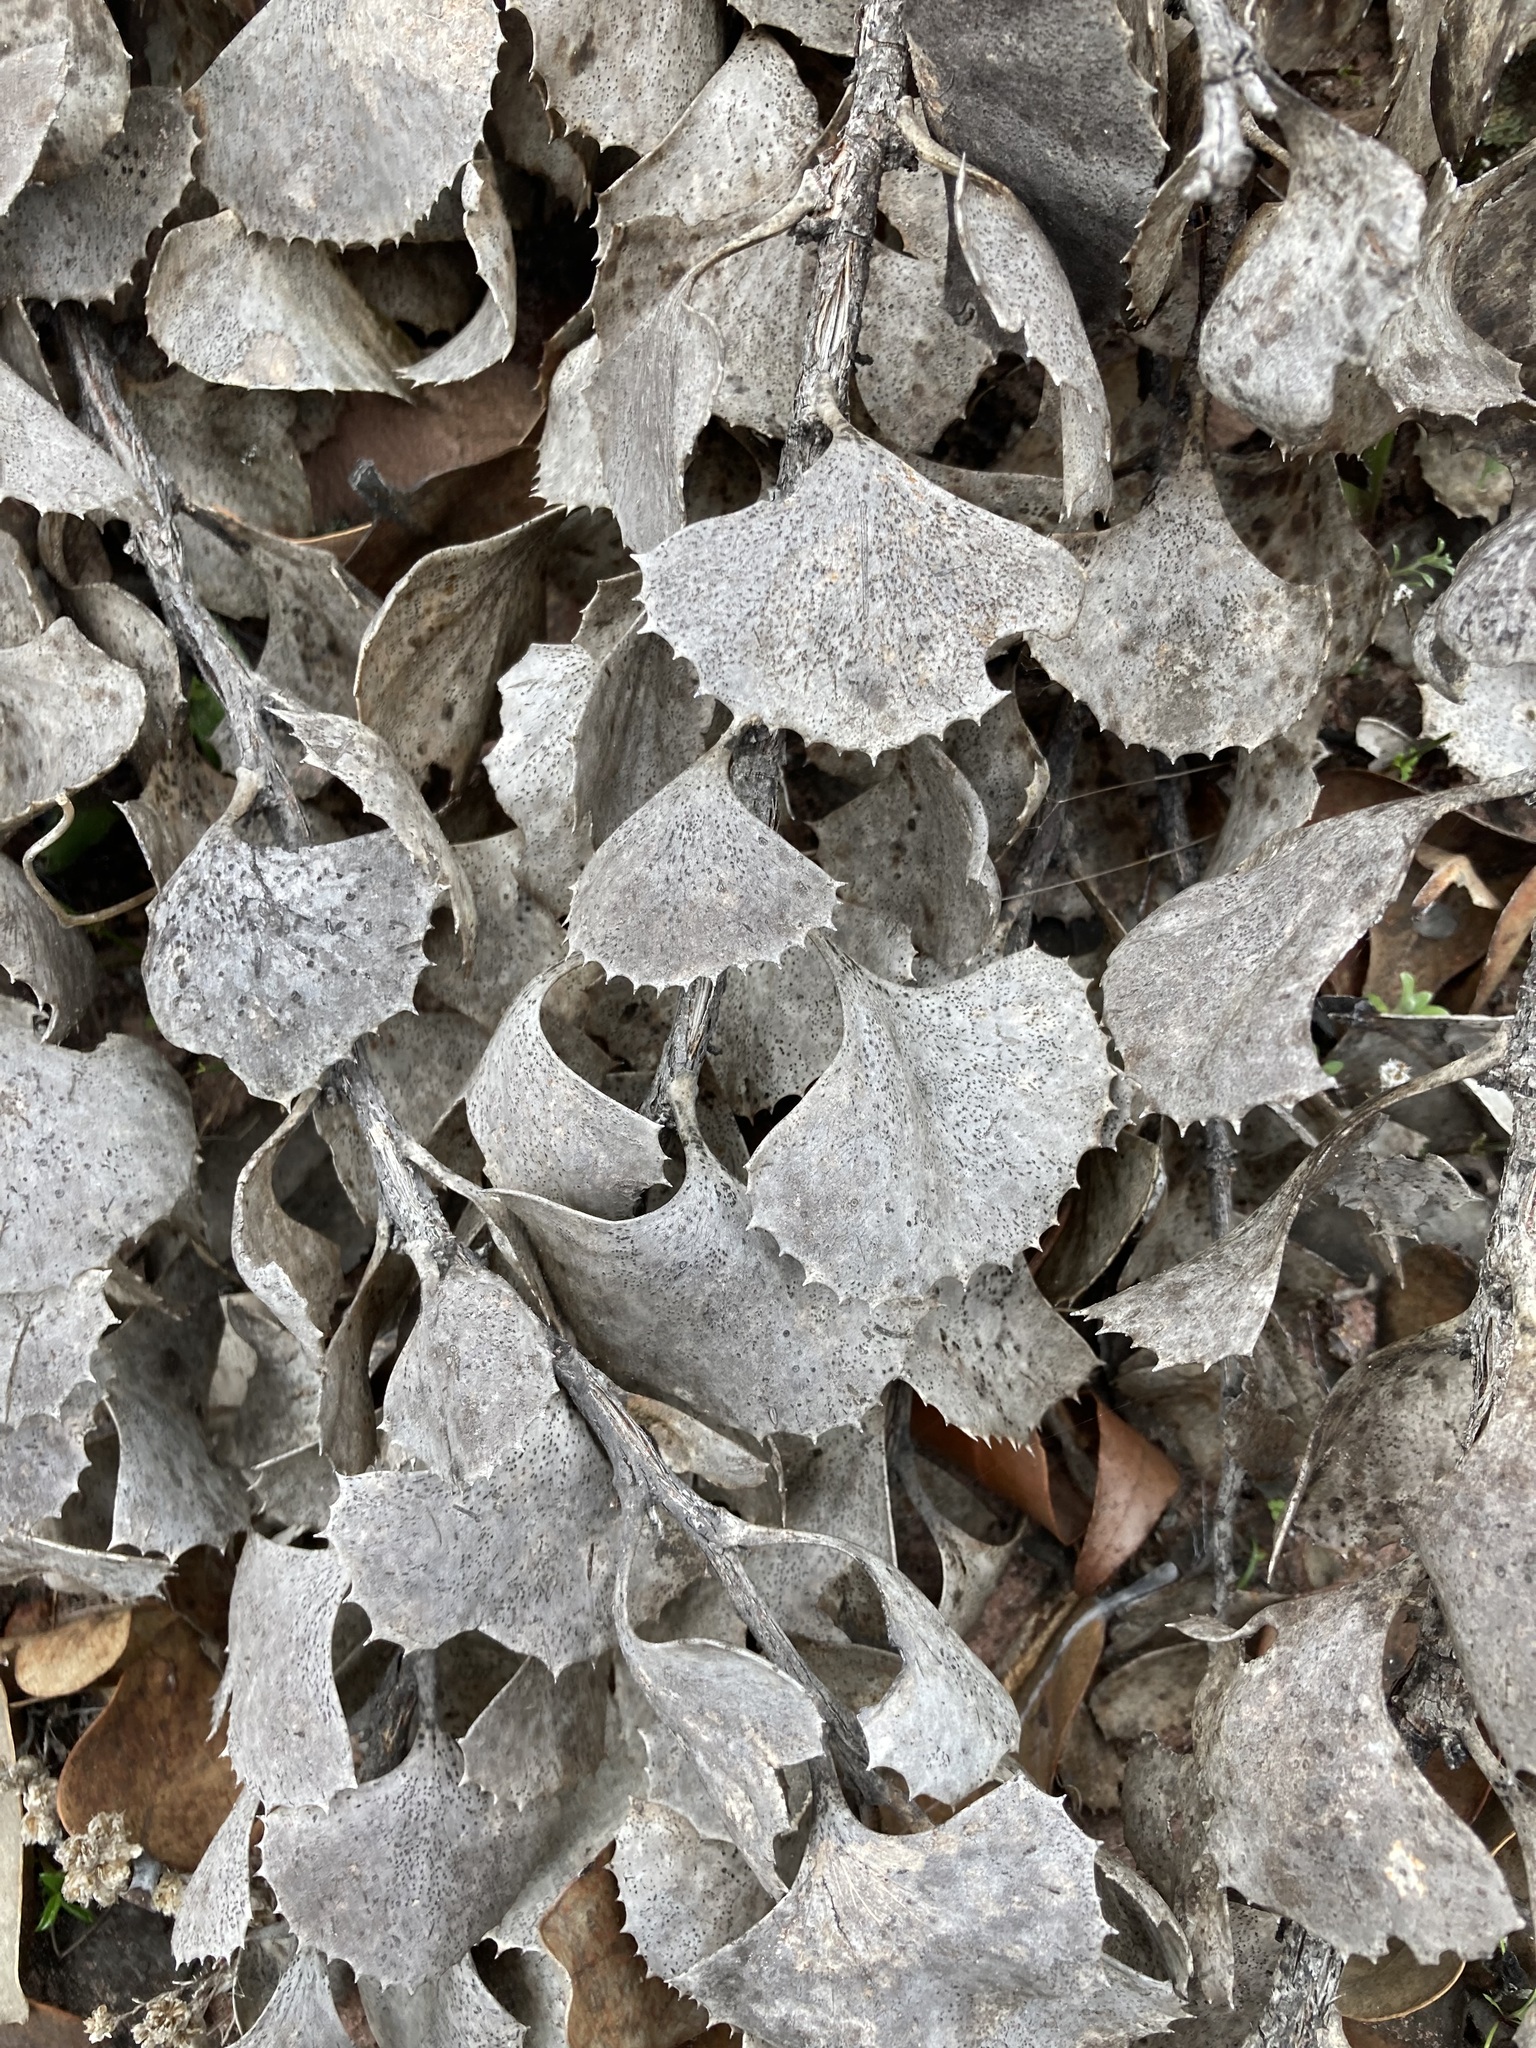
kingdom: Plantae
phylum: Tracheophyta
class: Magnoliopsida
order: Proteales
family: Proteaceae
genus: Hakea
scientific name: Hakea baxteri
